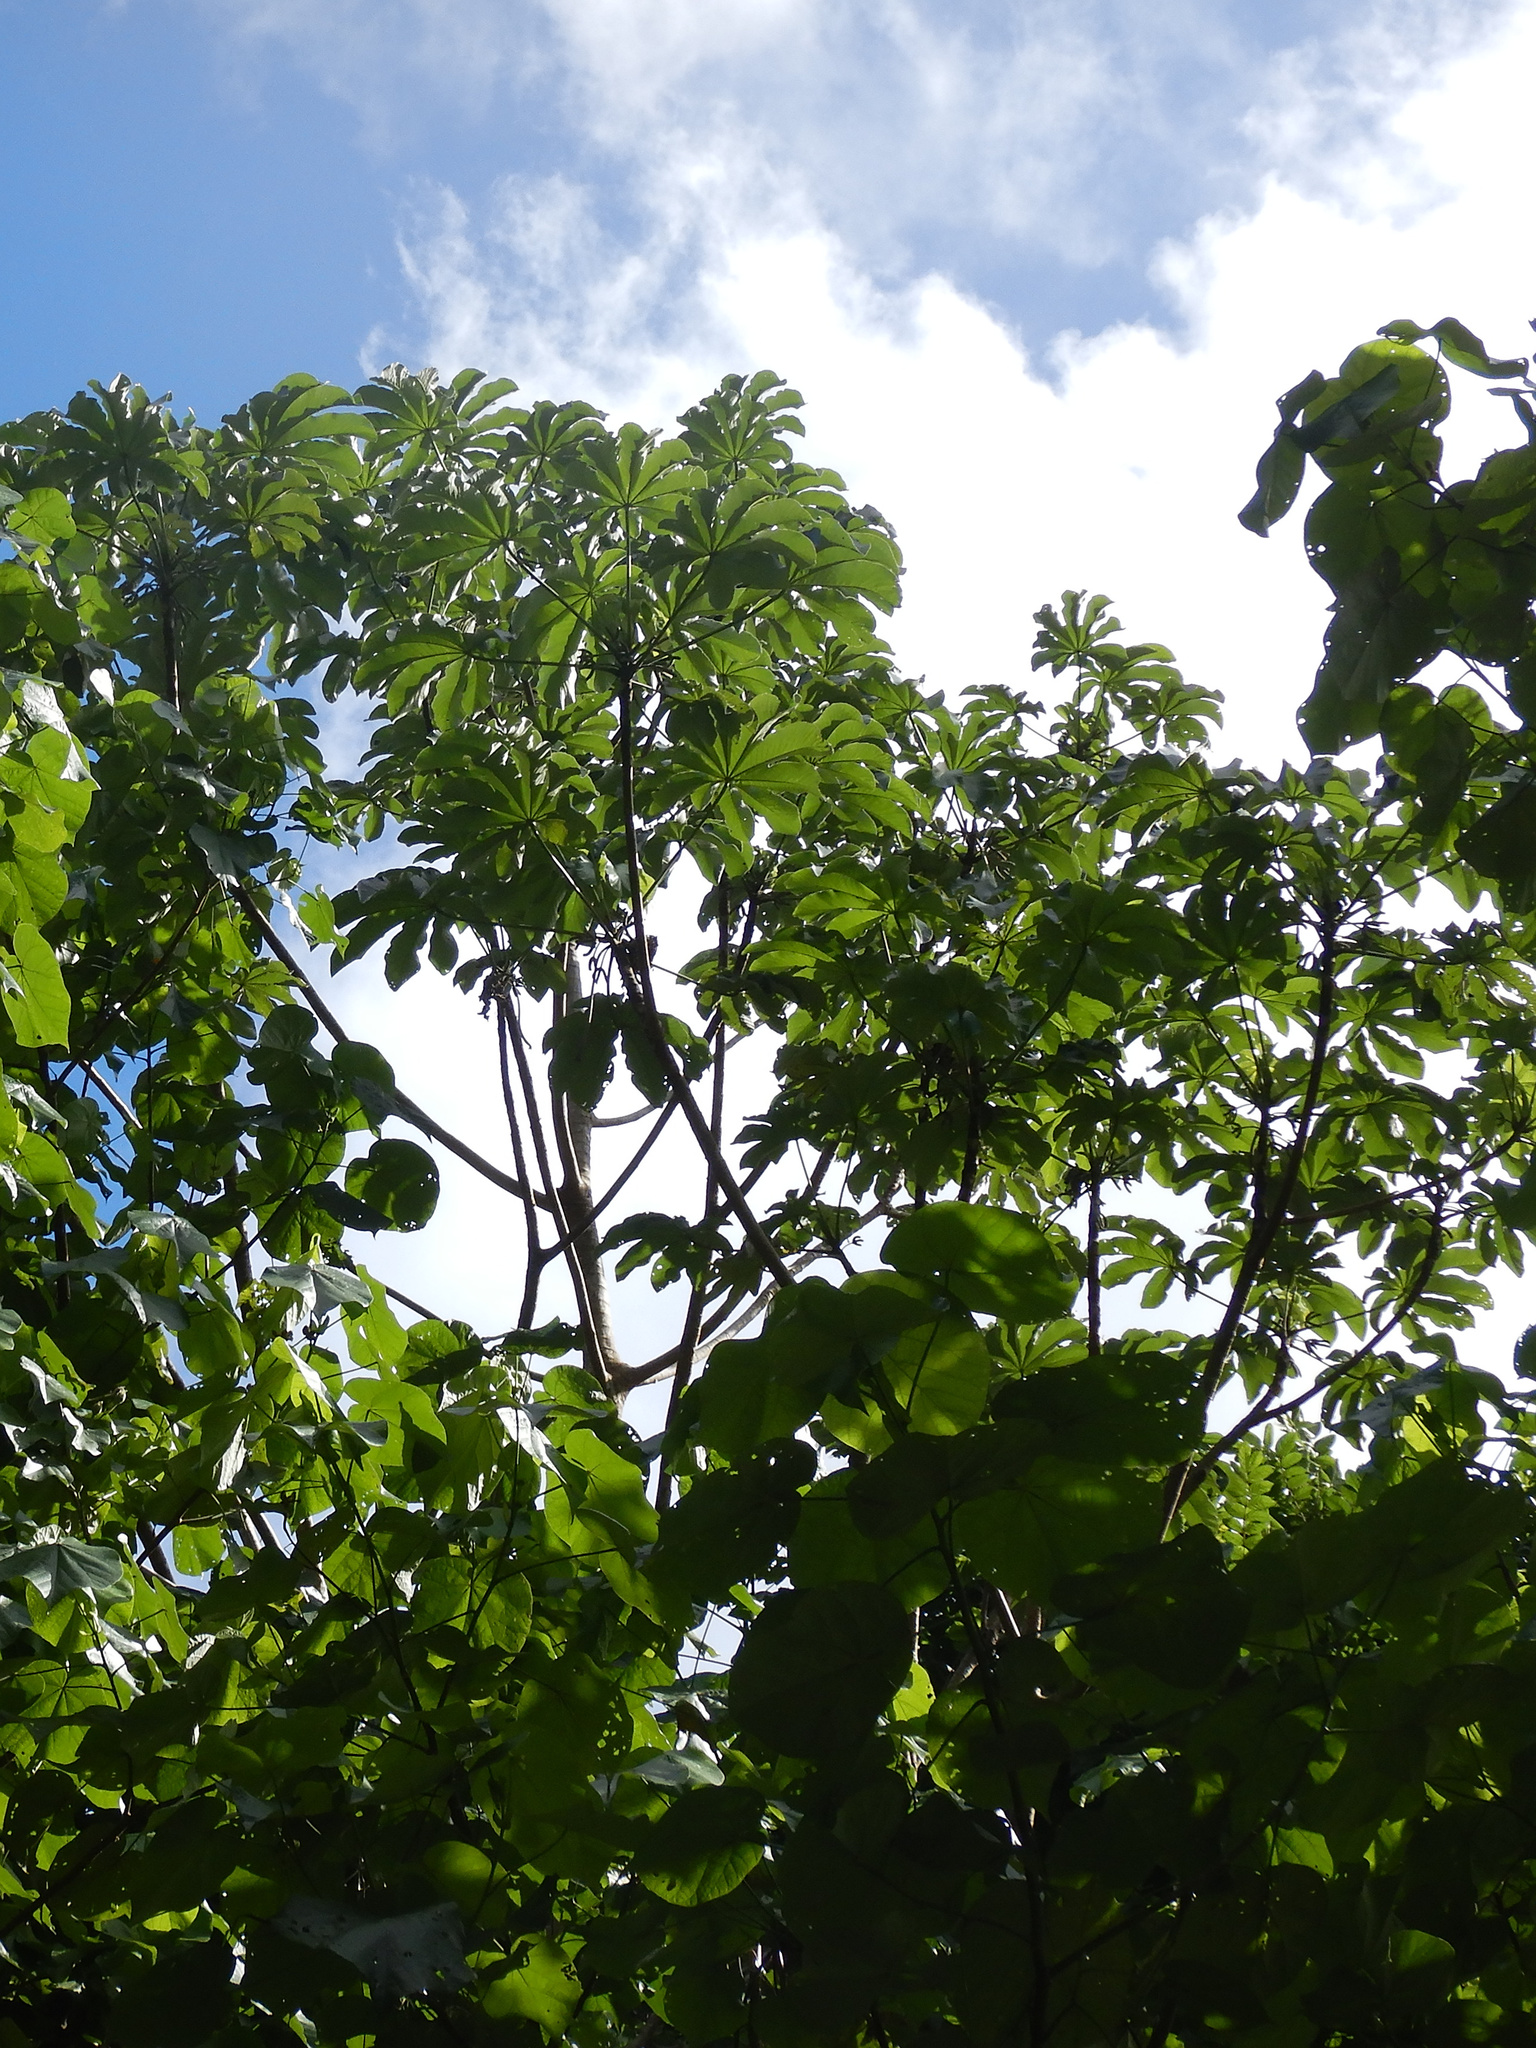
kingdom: Plantae
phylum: Tracheophyta
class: Magnoliopsida
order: Rosales
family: Urticaceae
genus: Cecropia
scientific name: Cecropia pachystachya
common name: Ambay pumpwood
